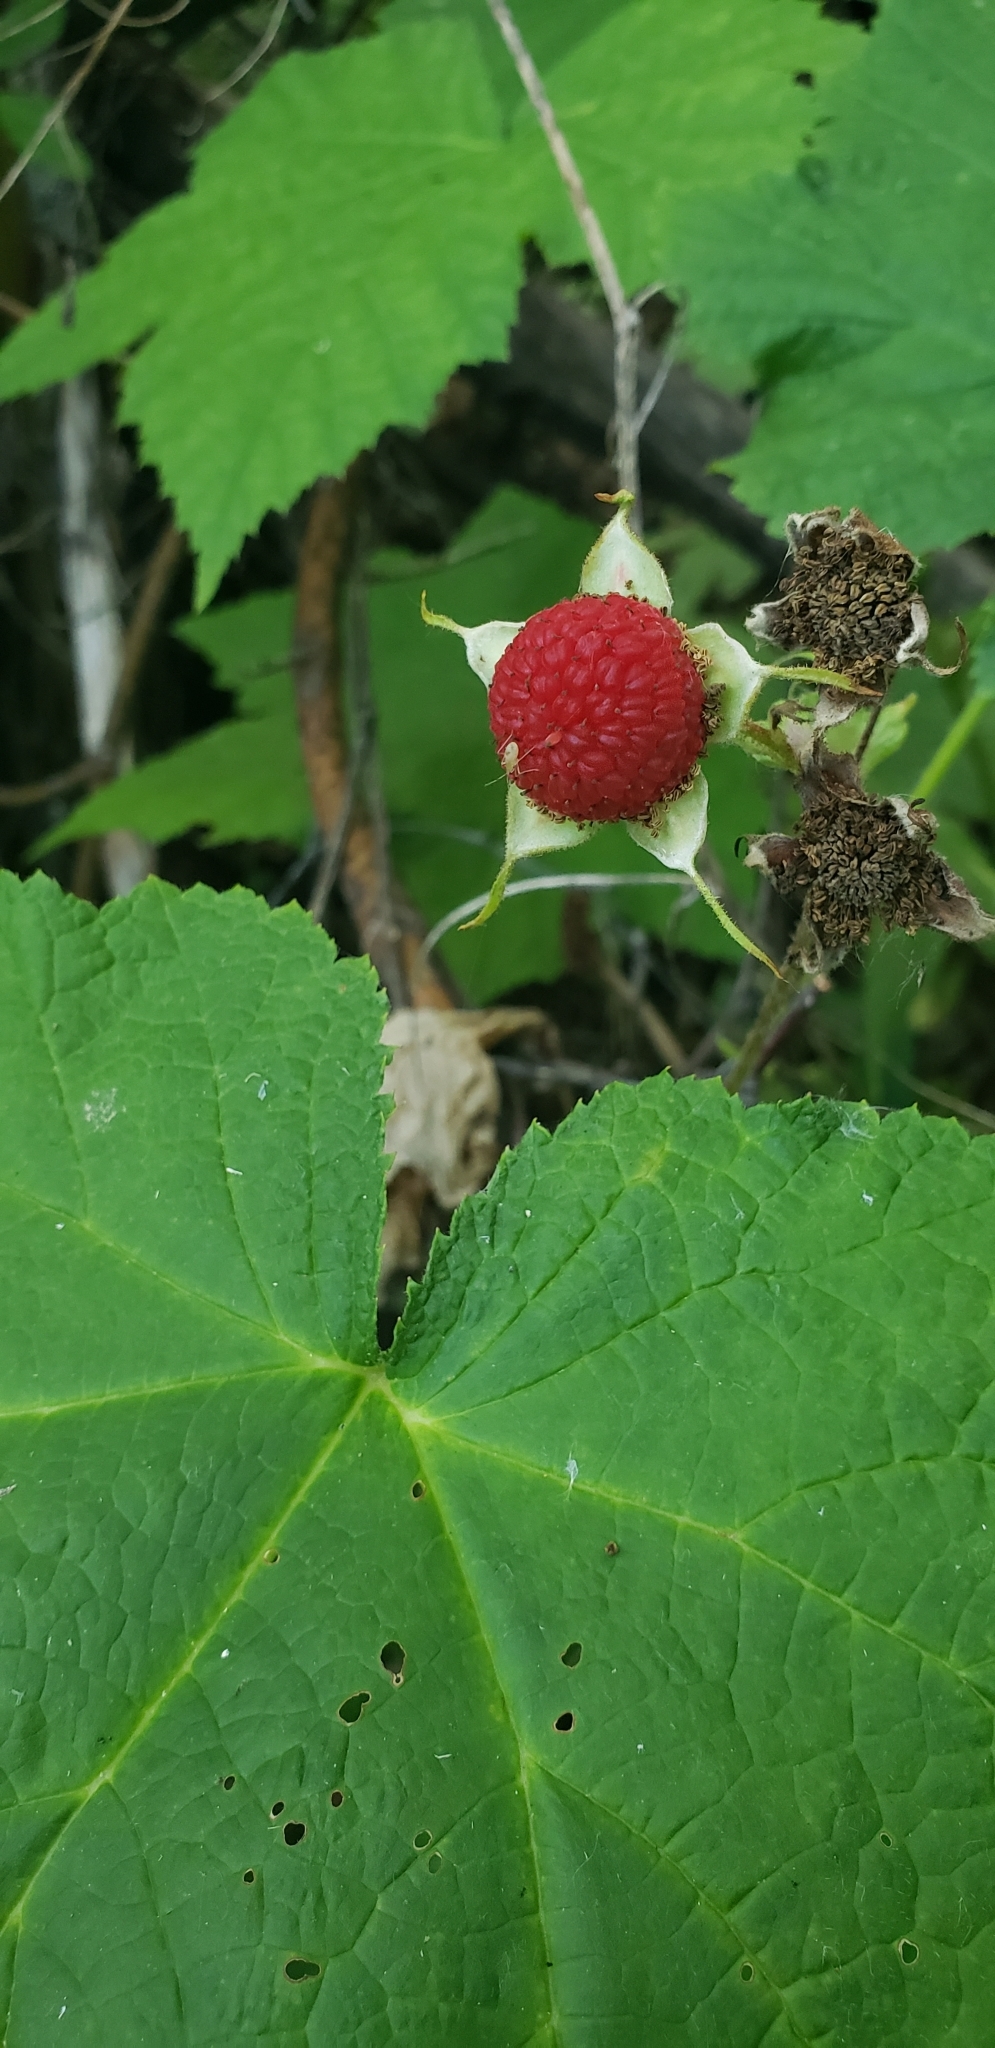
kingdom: Plantae
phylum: Tracheophyta
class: Magnoliopsida
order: Rosales
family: Rosaceae
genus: Rubus
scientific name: Rubus parviflorus
